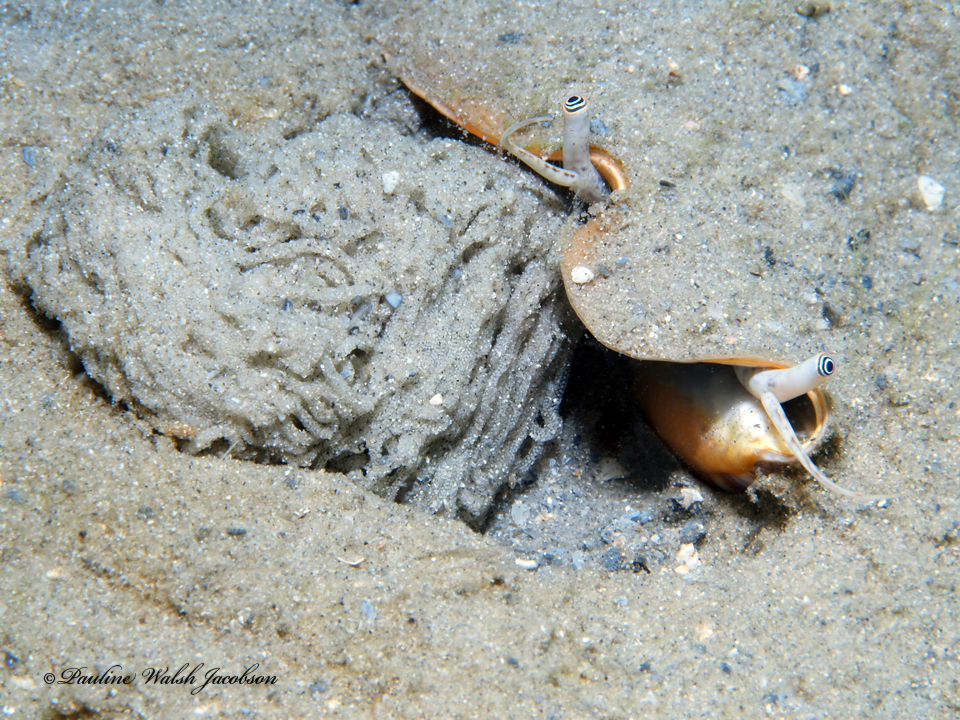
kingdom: Animalia
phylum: Mollusca
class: Gastropoda
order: Littorinimorpha
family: Strombidae
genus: Strombus
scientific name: Strombus alatus
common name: Florida fighting conch
